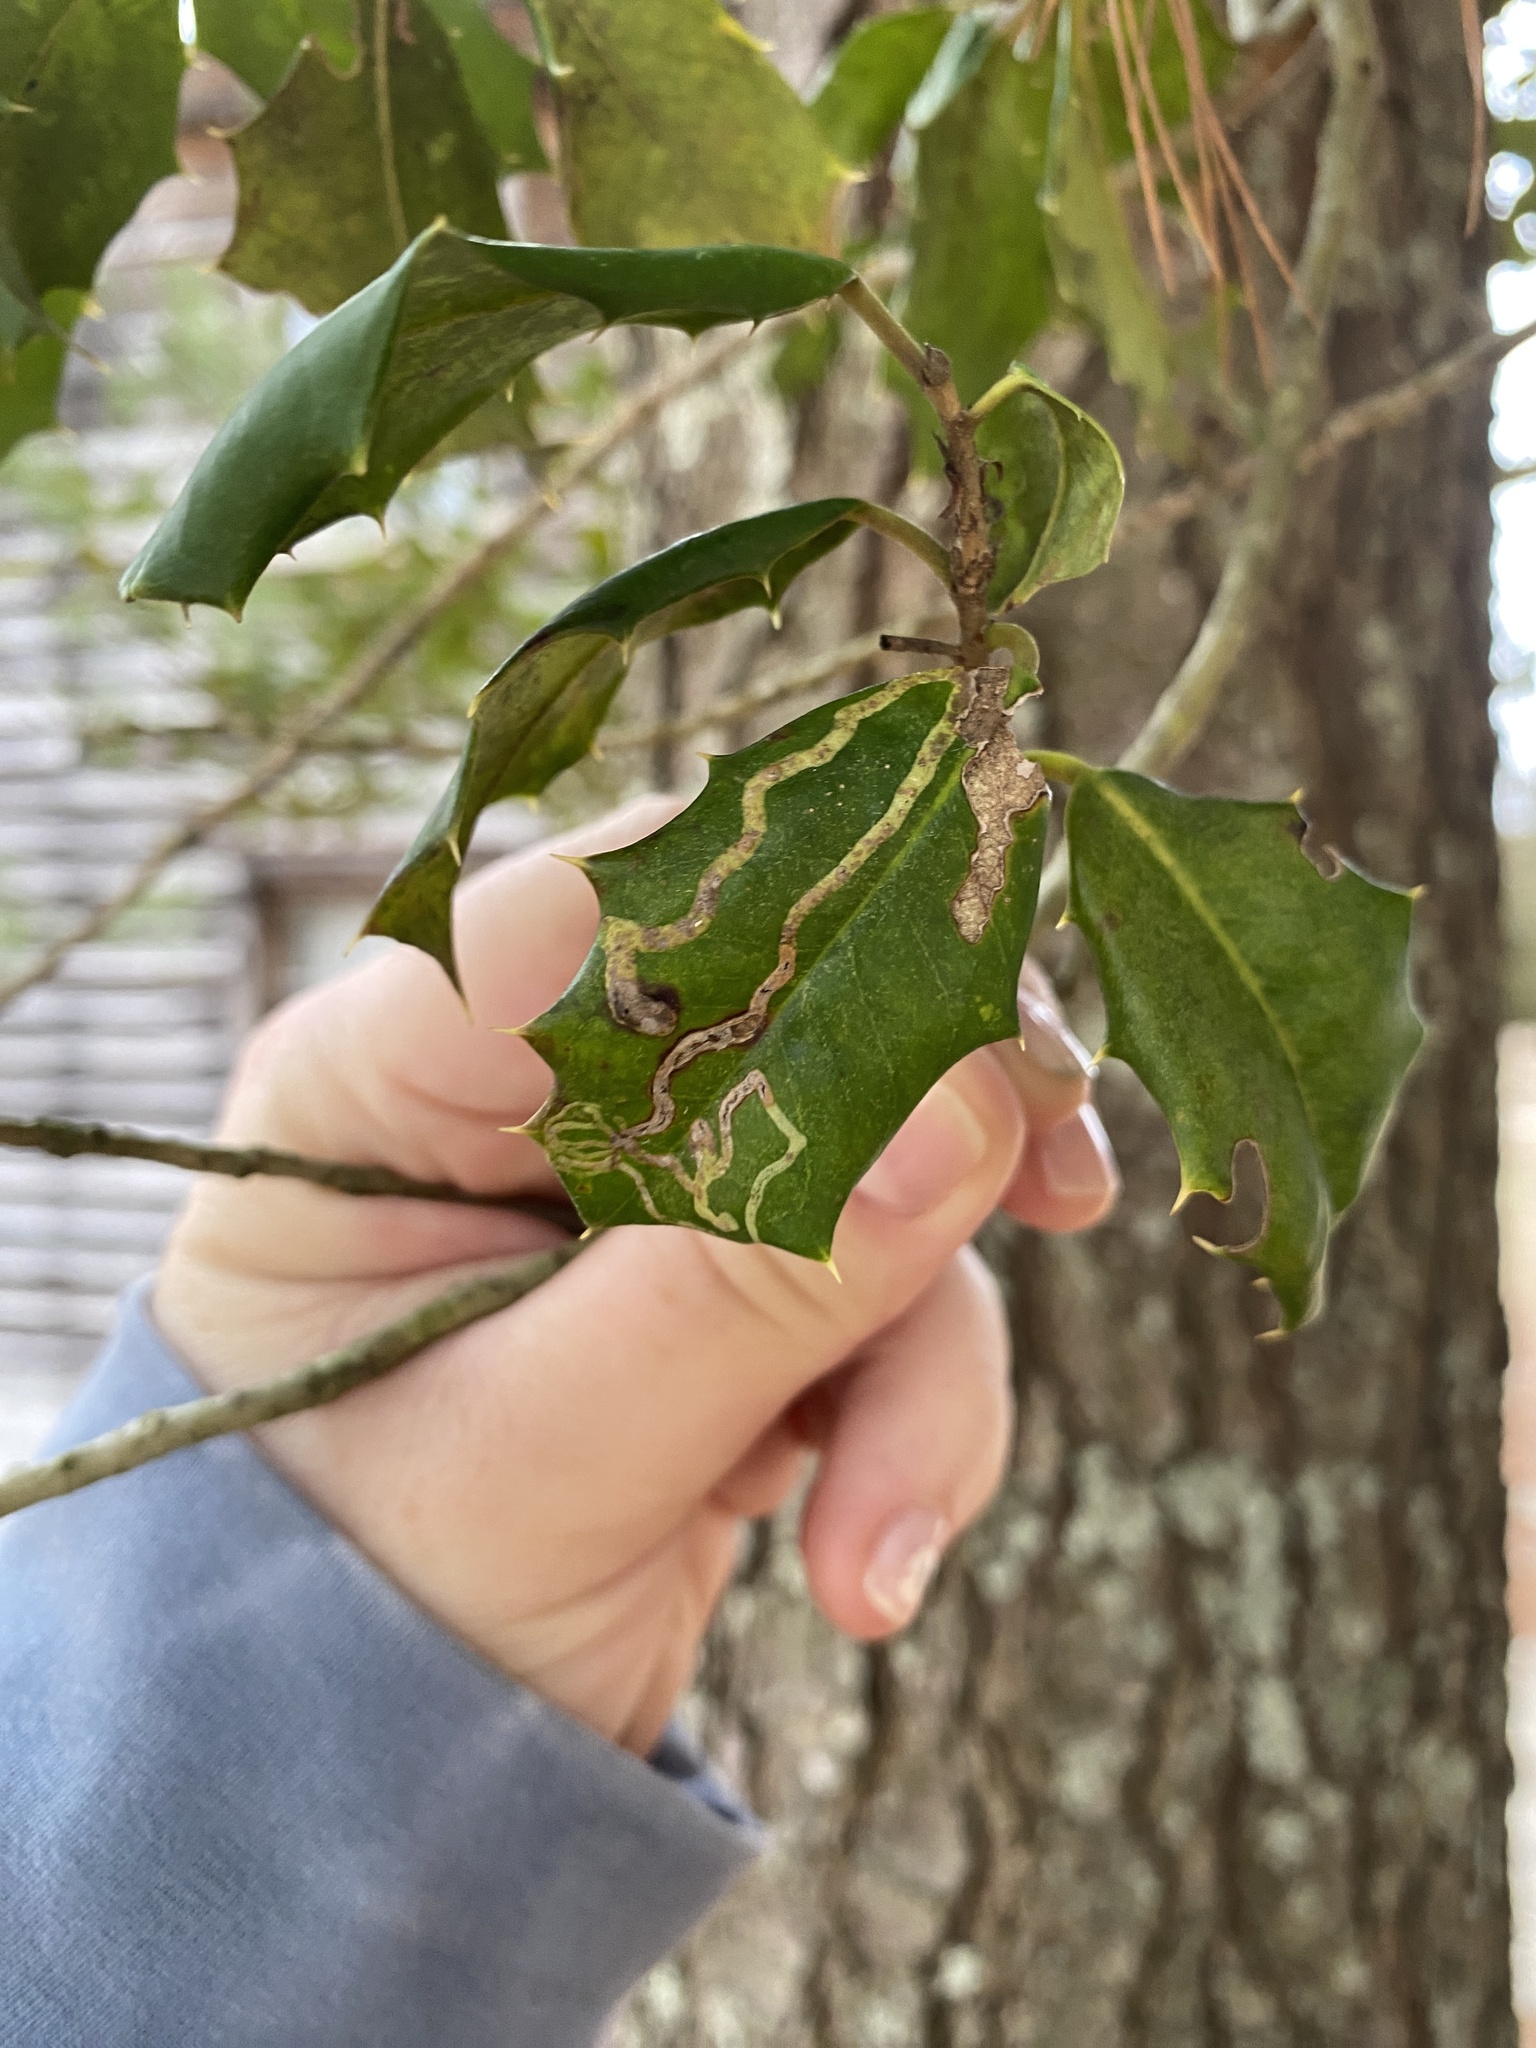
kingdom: Animalia
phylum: Arthropoda
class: Insecta
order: Diptera
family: Agromyzidae
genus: Phytomyza
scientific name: Phytomyza opacae
